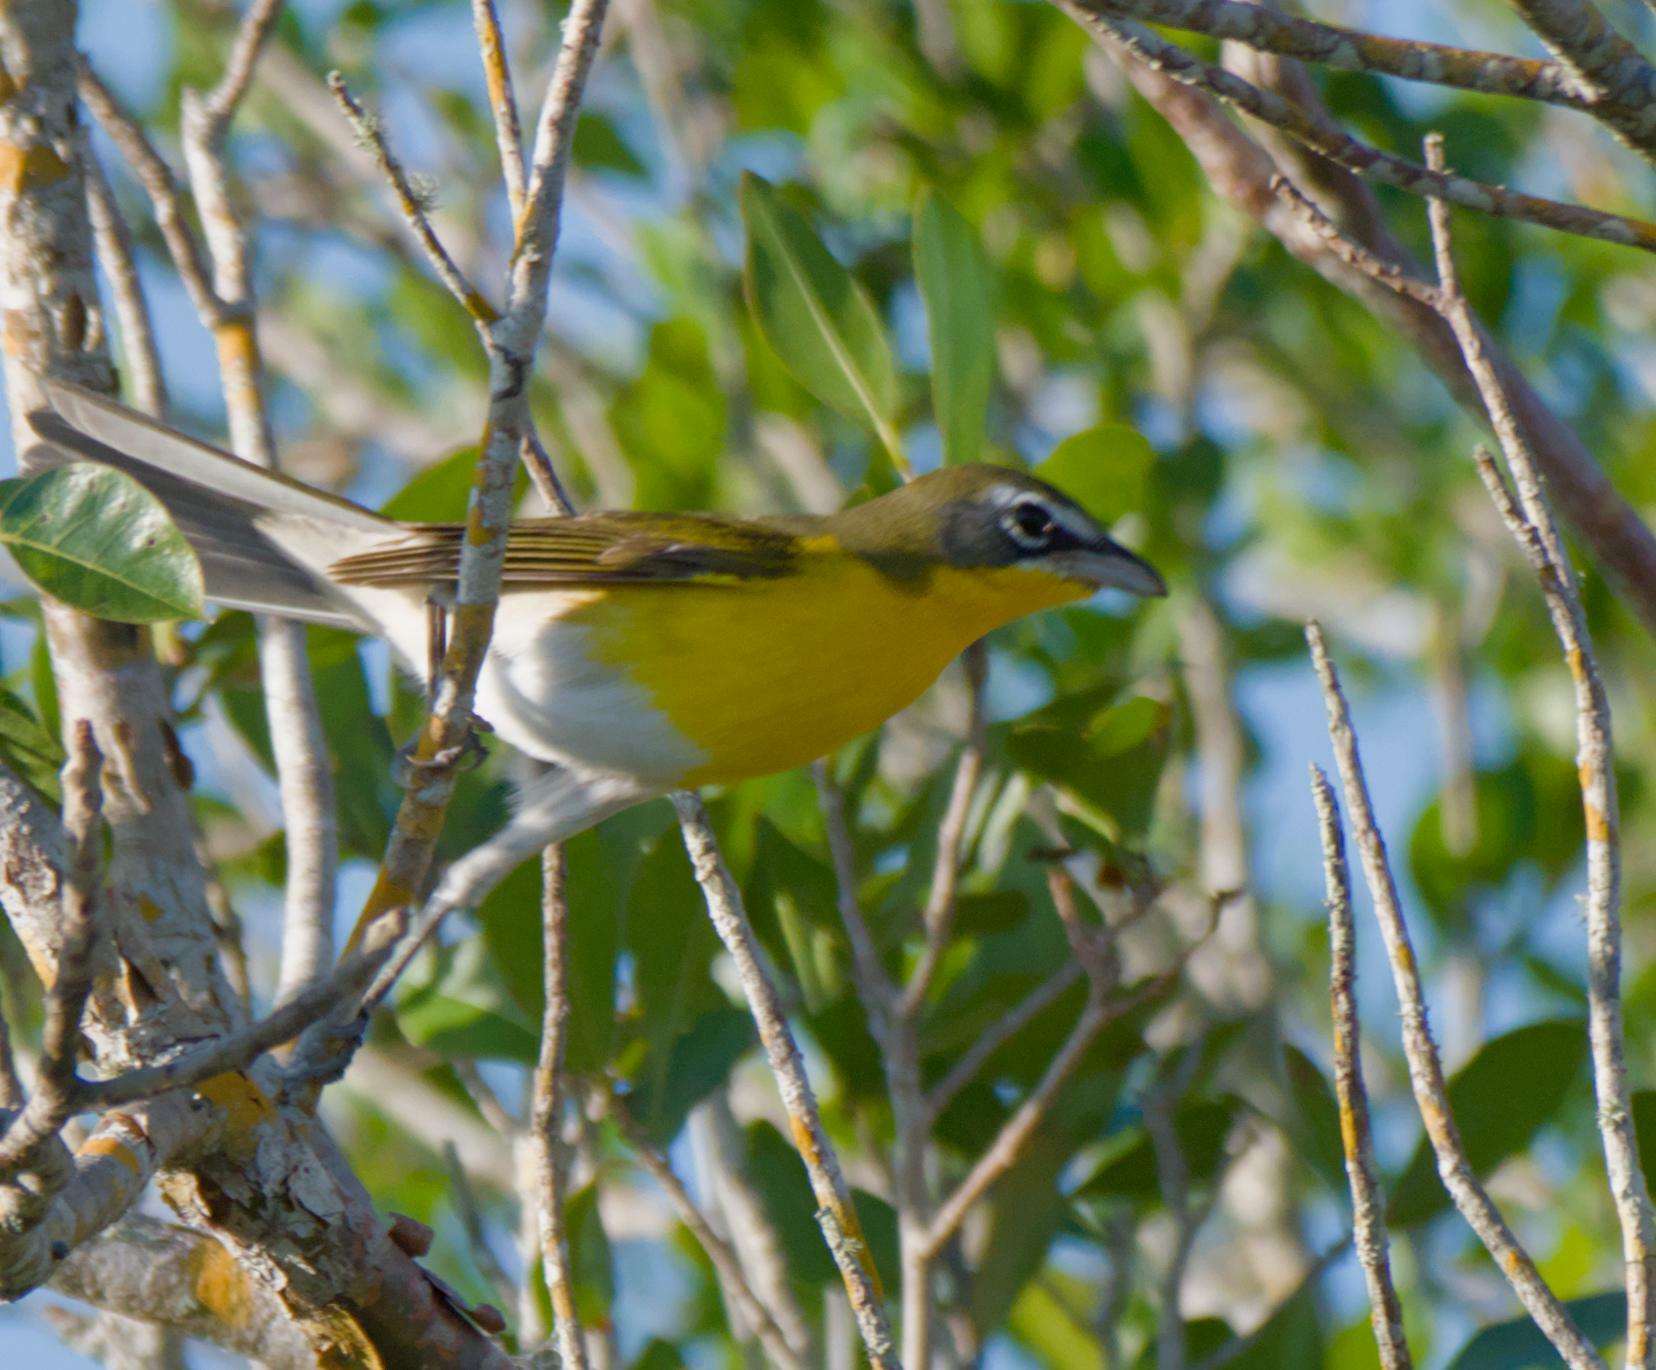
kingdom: Animalia
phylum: Chordata
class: Aves
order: Passeriformes
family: Parulidae
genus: Icteria
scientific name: Icteria virens
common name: Yellow-breasted chat
